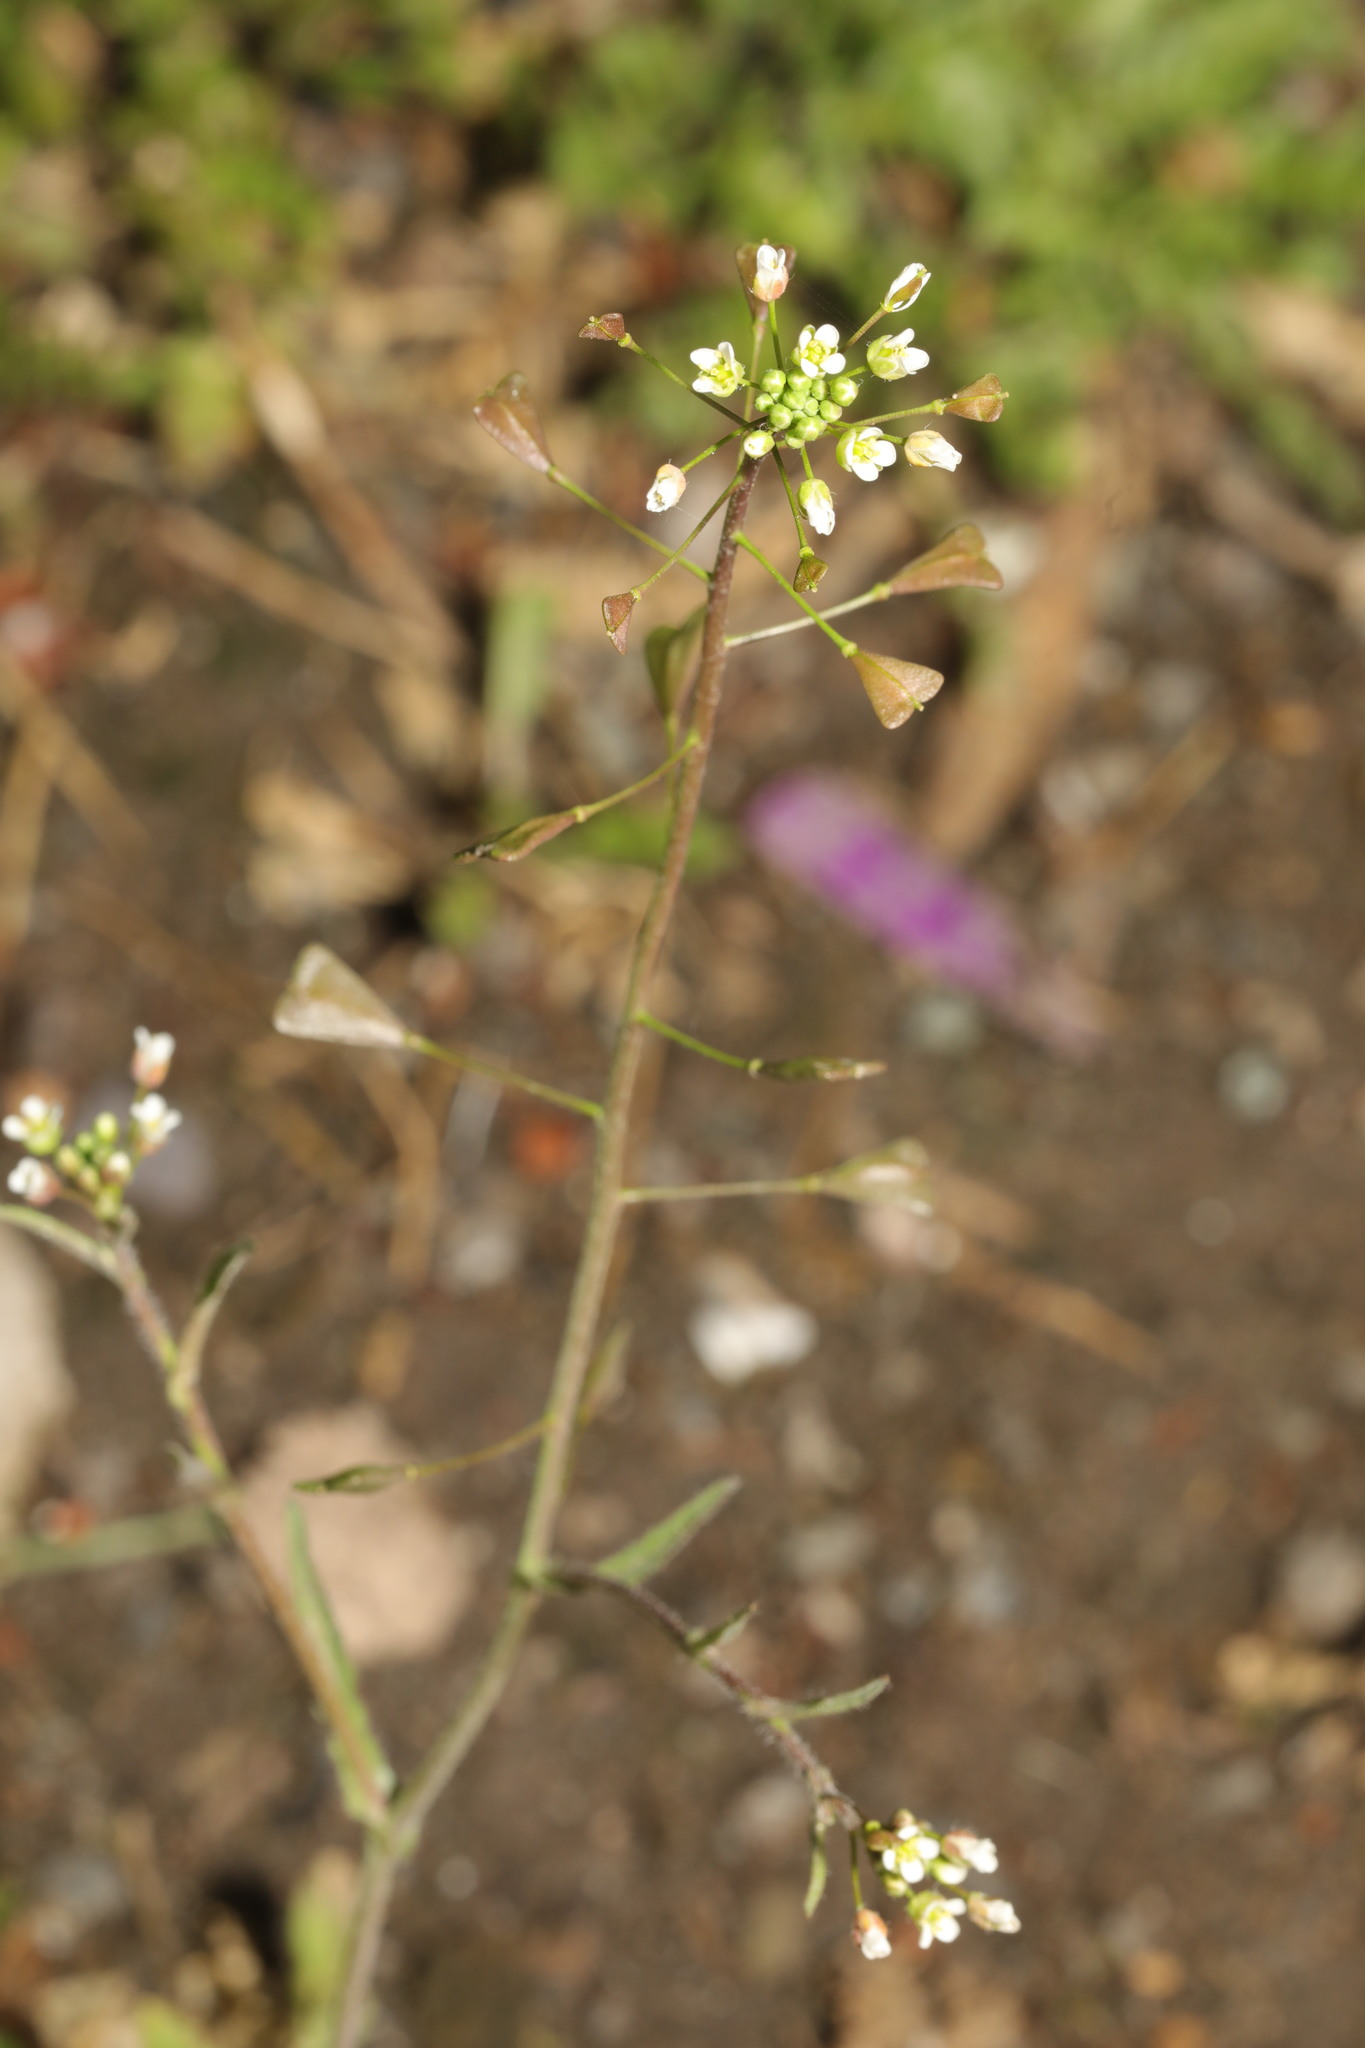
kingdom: Plantae
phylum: Tracheophyta
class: Magnoliopsida
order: Brassicales
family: Brassicaceae
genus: Capsella
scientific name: Capsella bursa-pastoris
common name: Shepherd's purse
